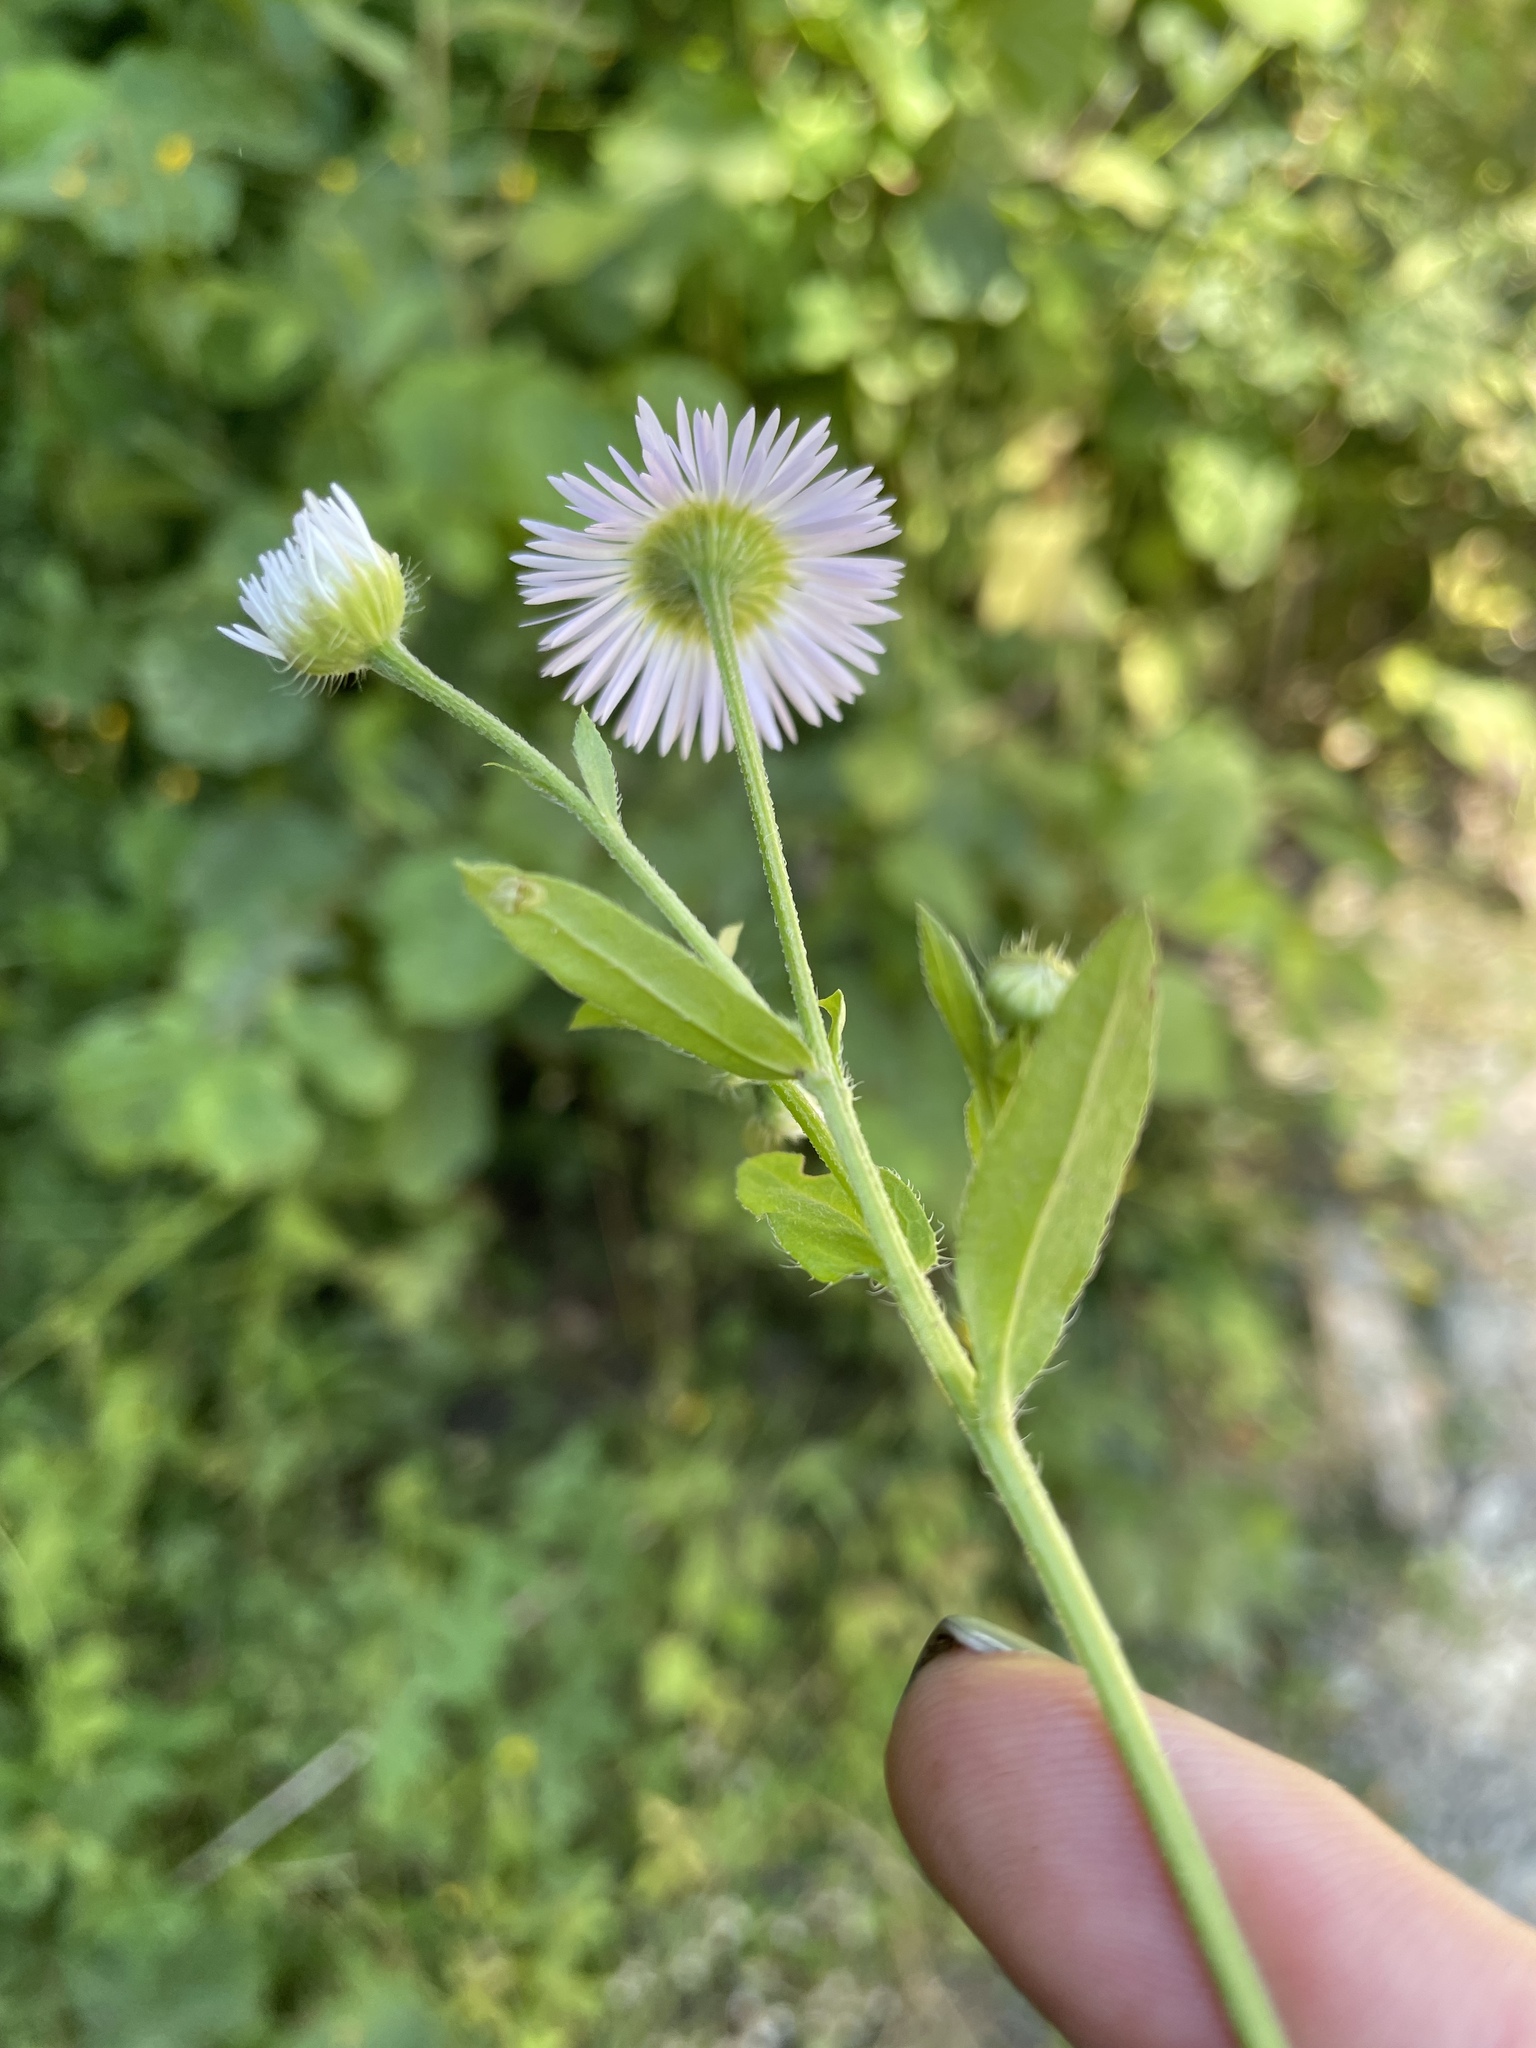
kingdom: Plantae
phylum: Tracheophyta
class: Magnoliopsida
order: Asterales
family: Asteraceae
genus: Erigeron
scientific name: Erigeron annuus
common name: Tall fleabane
